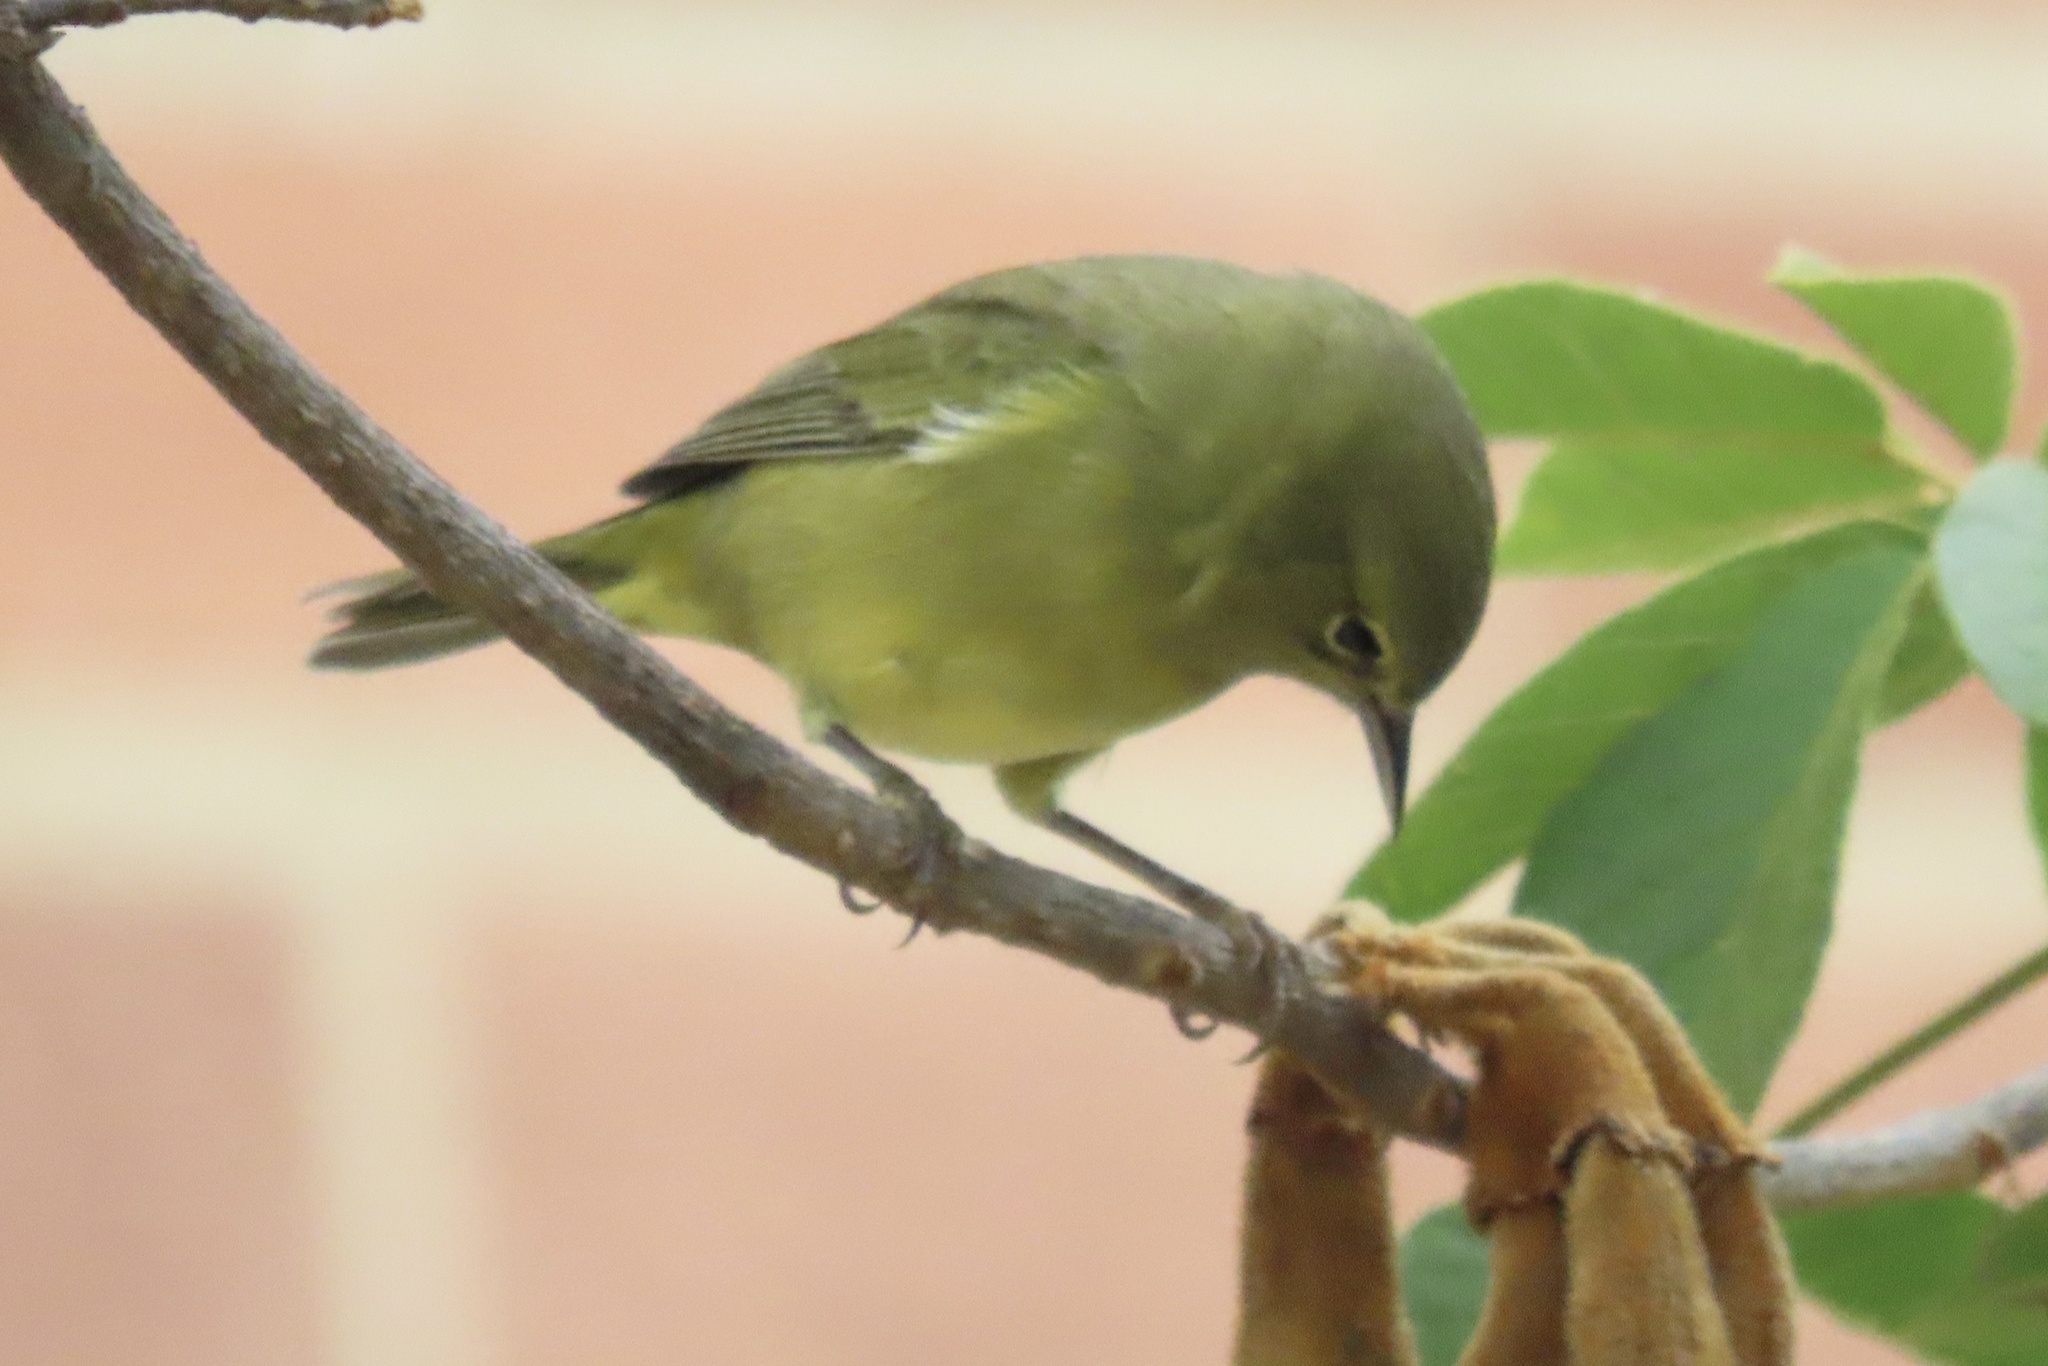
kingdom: Animalia
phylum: Chordata
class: Aves
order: Passeriformes
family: Parulidae
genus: Leiothlypis
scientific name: Leiothlypis celata
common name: Orange-crowned warbler
